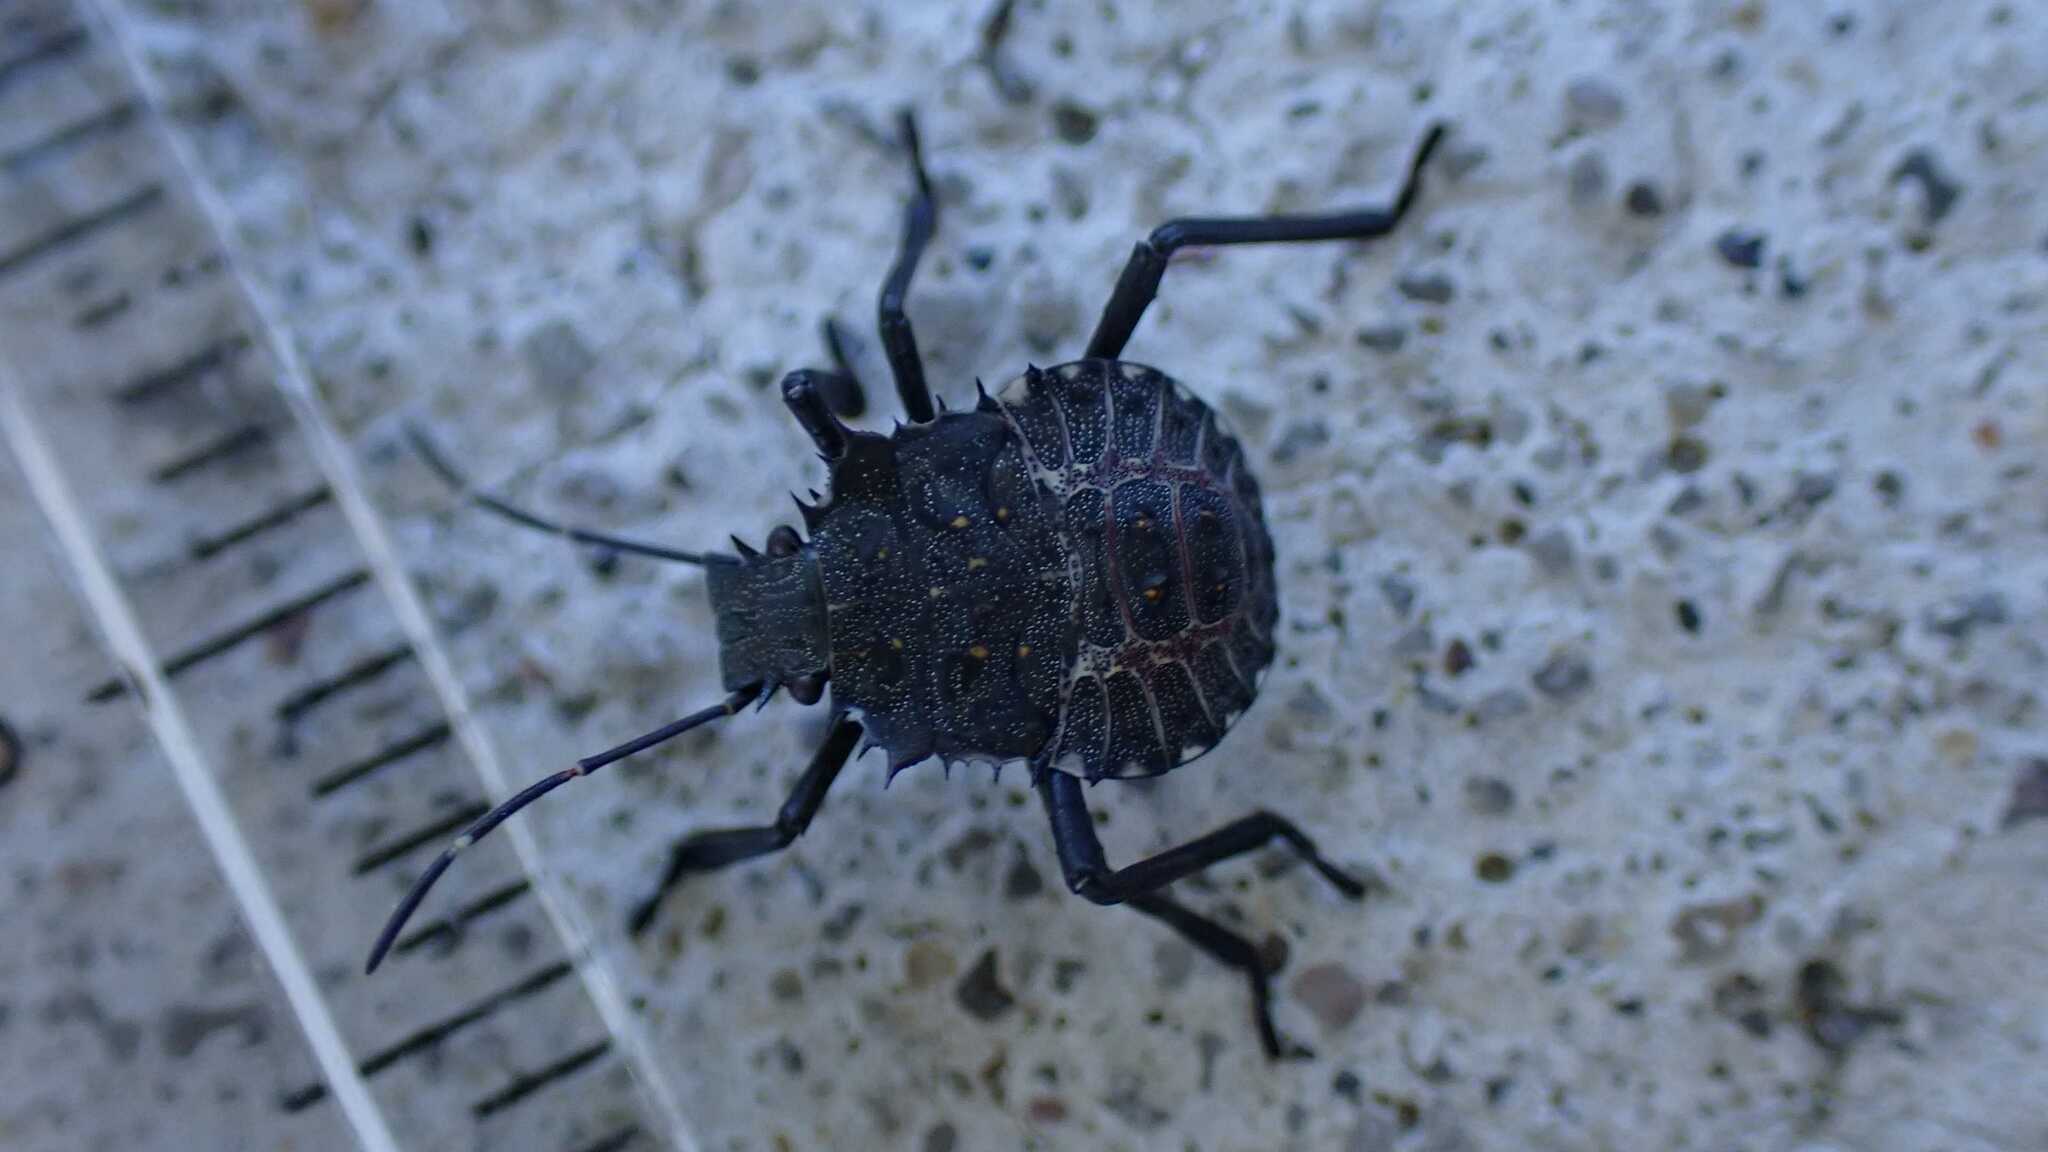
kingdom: Animalia
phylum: Arthropoda
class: Insecta
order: Hemiptera
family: Pentatomidae
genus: Halyomorpha
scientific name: Halyomorpha halys
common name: Brown marmorated stink bug
